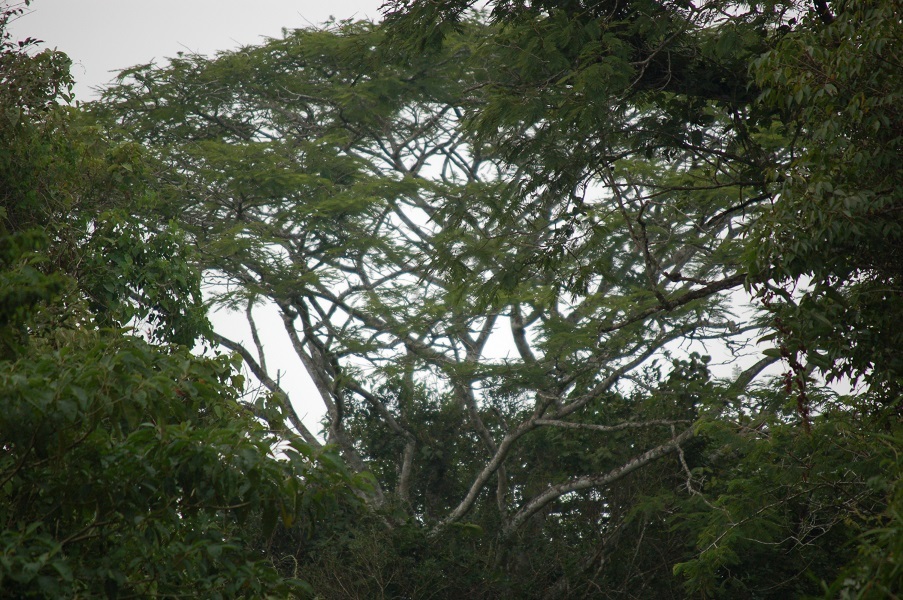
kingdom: Plantae
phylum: Tracheophyta
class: Magnoliopsida
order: Fabales
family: Fabaceae
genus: Vachellia
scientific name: Vachellia campechiana
